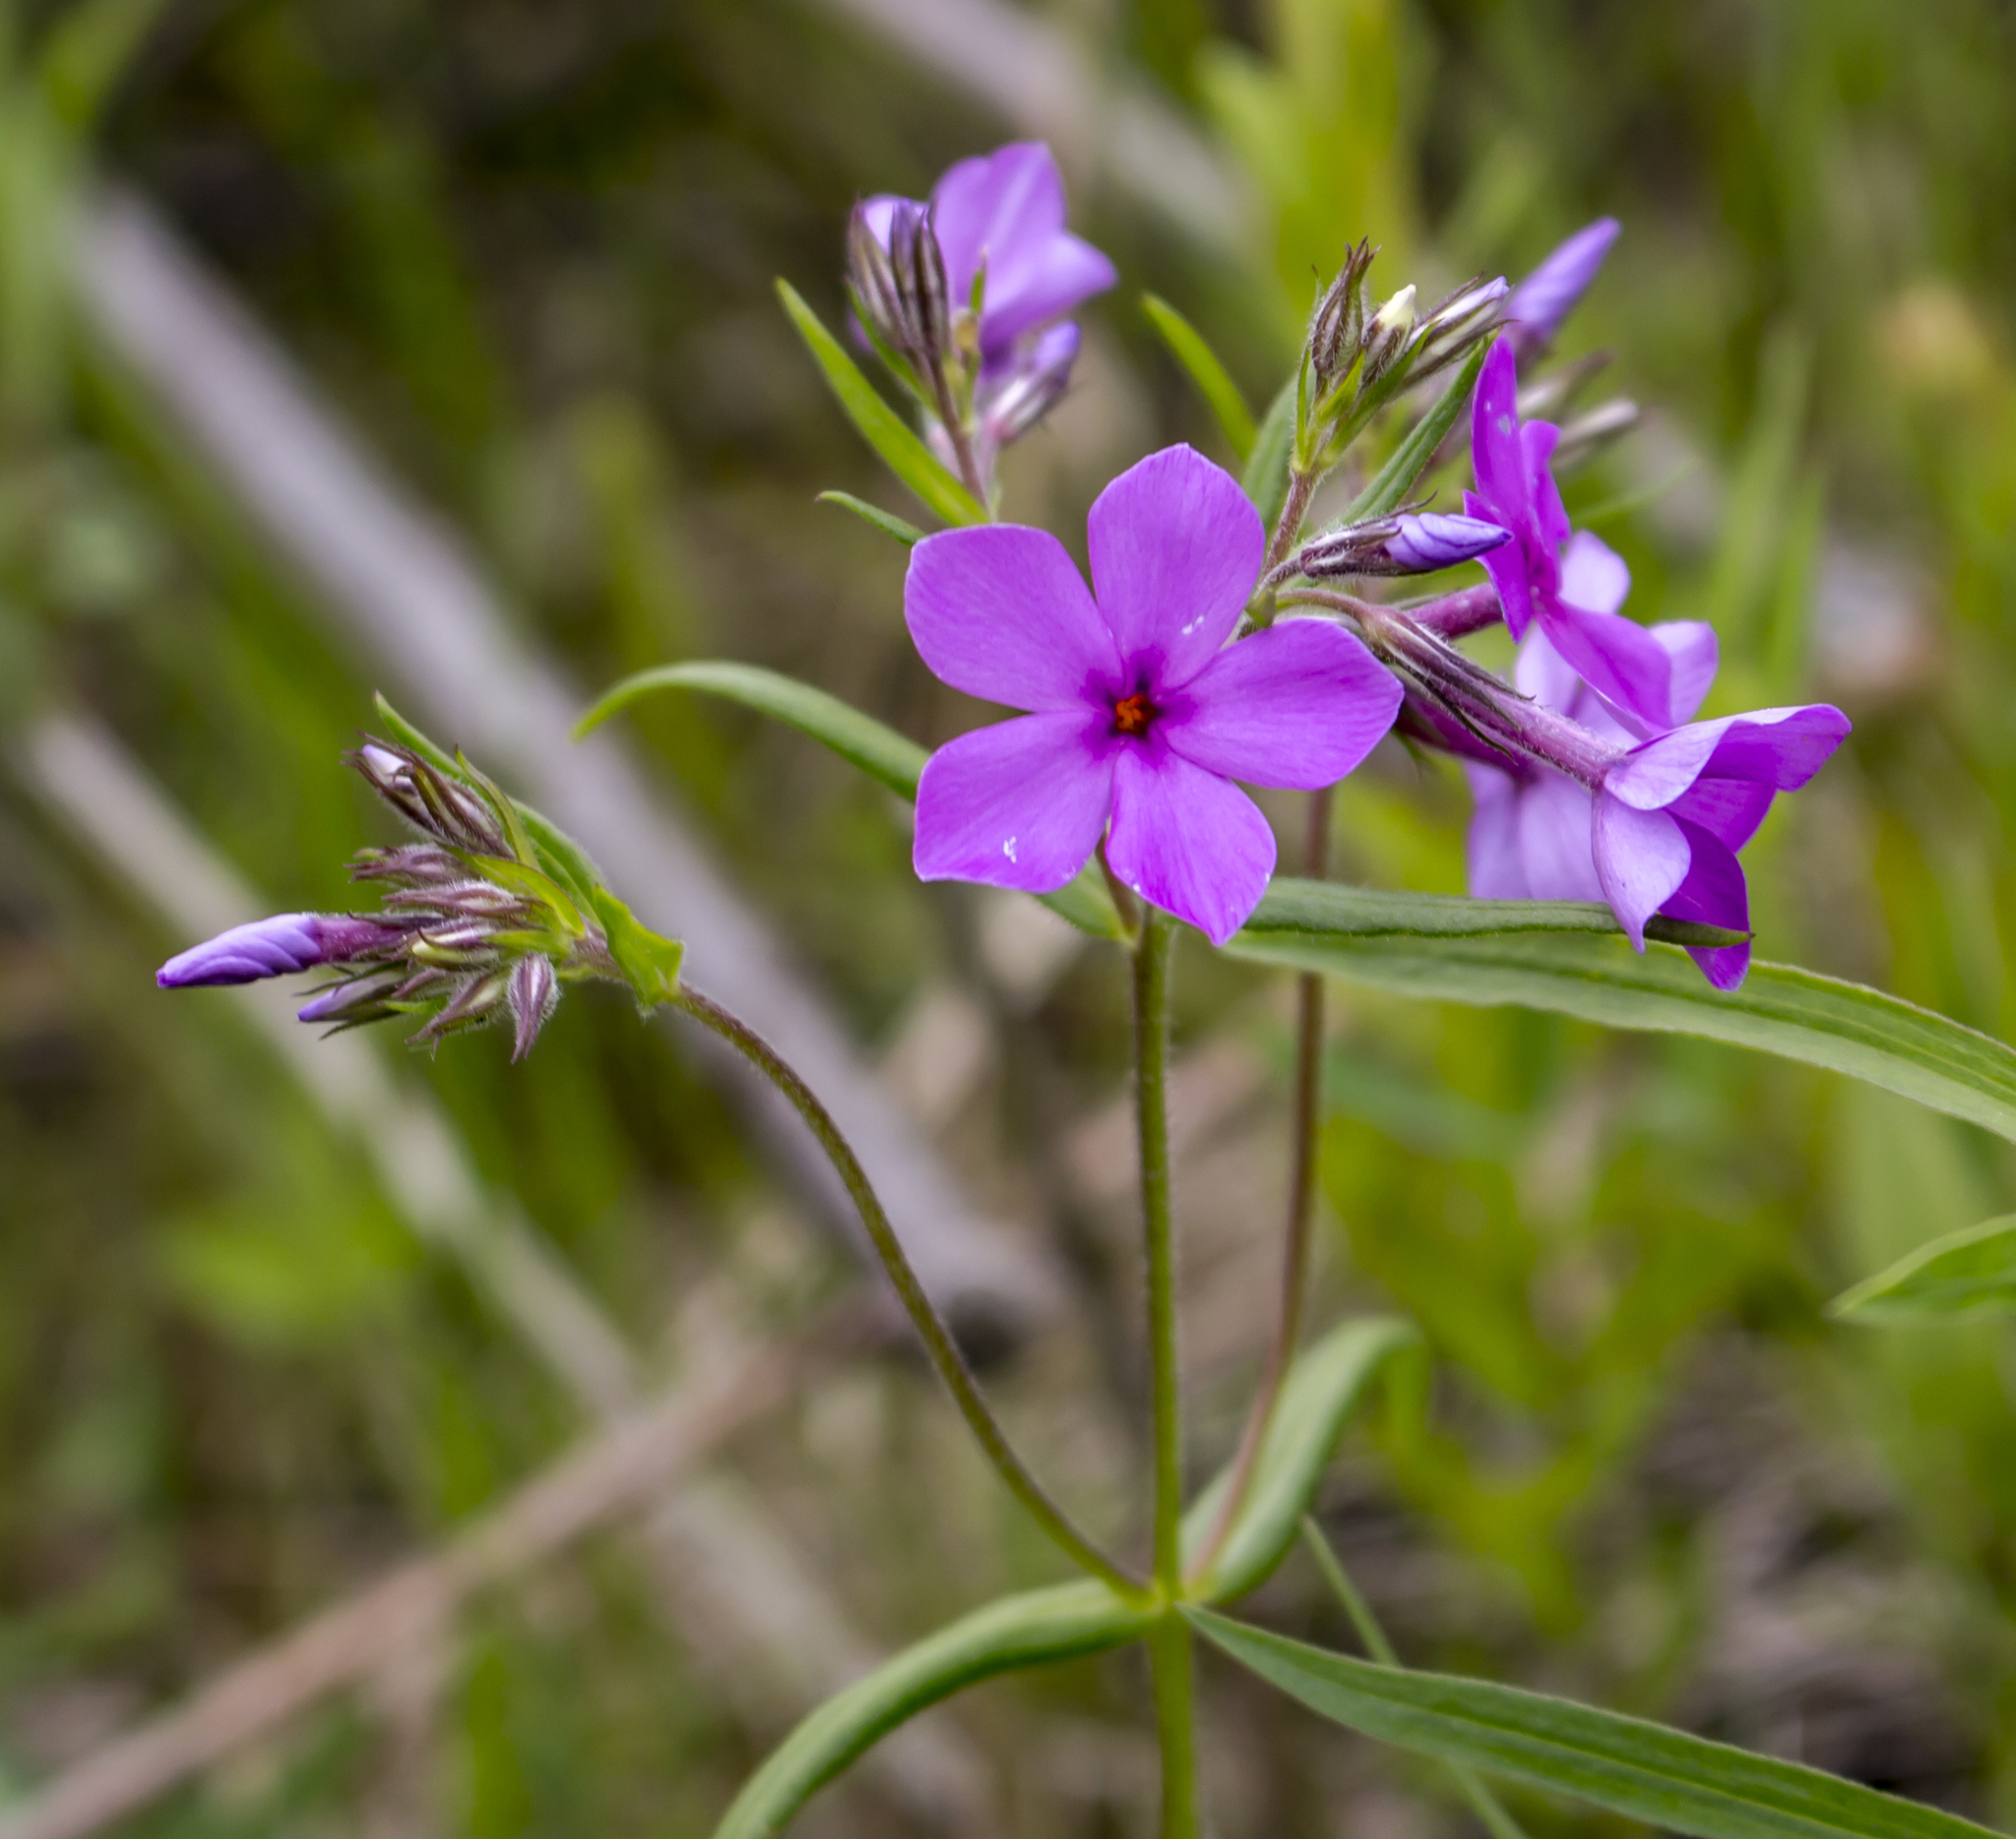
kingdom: Plantae
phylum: Tracheophyta
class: Magnoliopsida
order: Ericales
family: Polemoniaceae
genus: Phlox
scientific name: Phlox pilosa
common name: Prairie phlox
